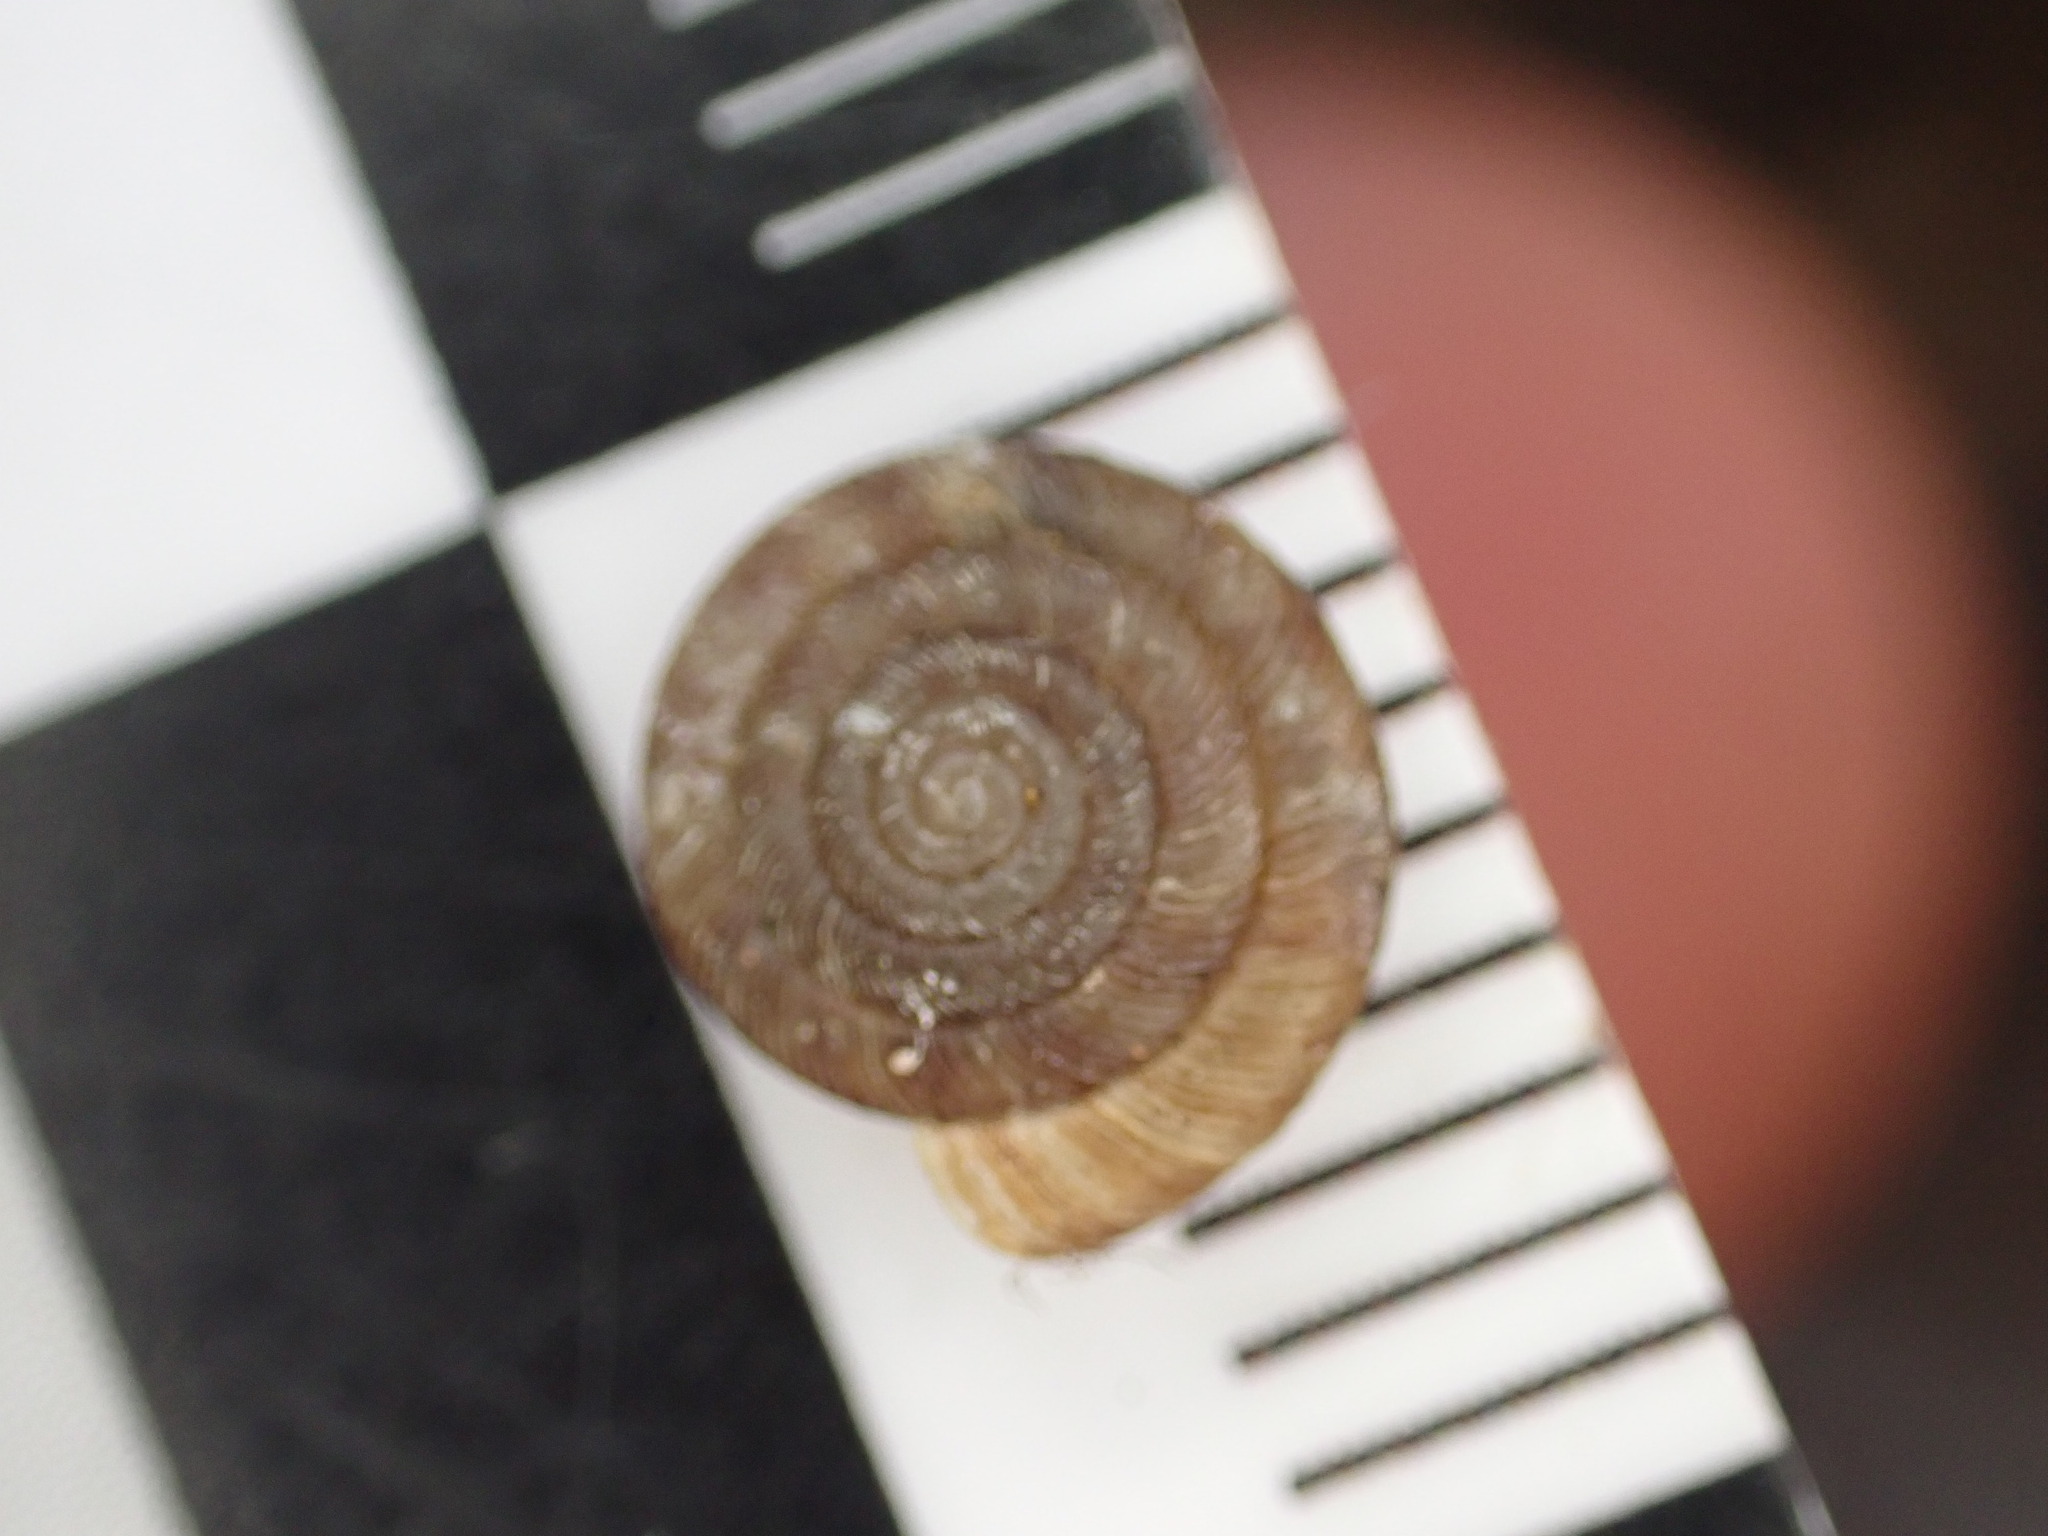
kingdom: Animalia
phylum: Mollusca
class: Gastropoda
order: Stylommatophora
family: Discidae
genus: Discus
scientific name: Discus rotundatus
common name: Rounded snail
